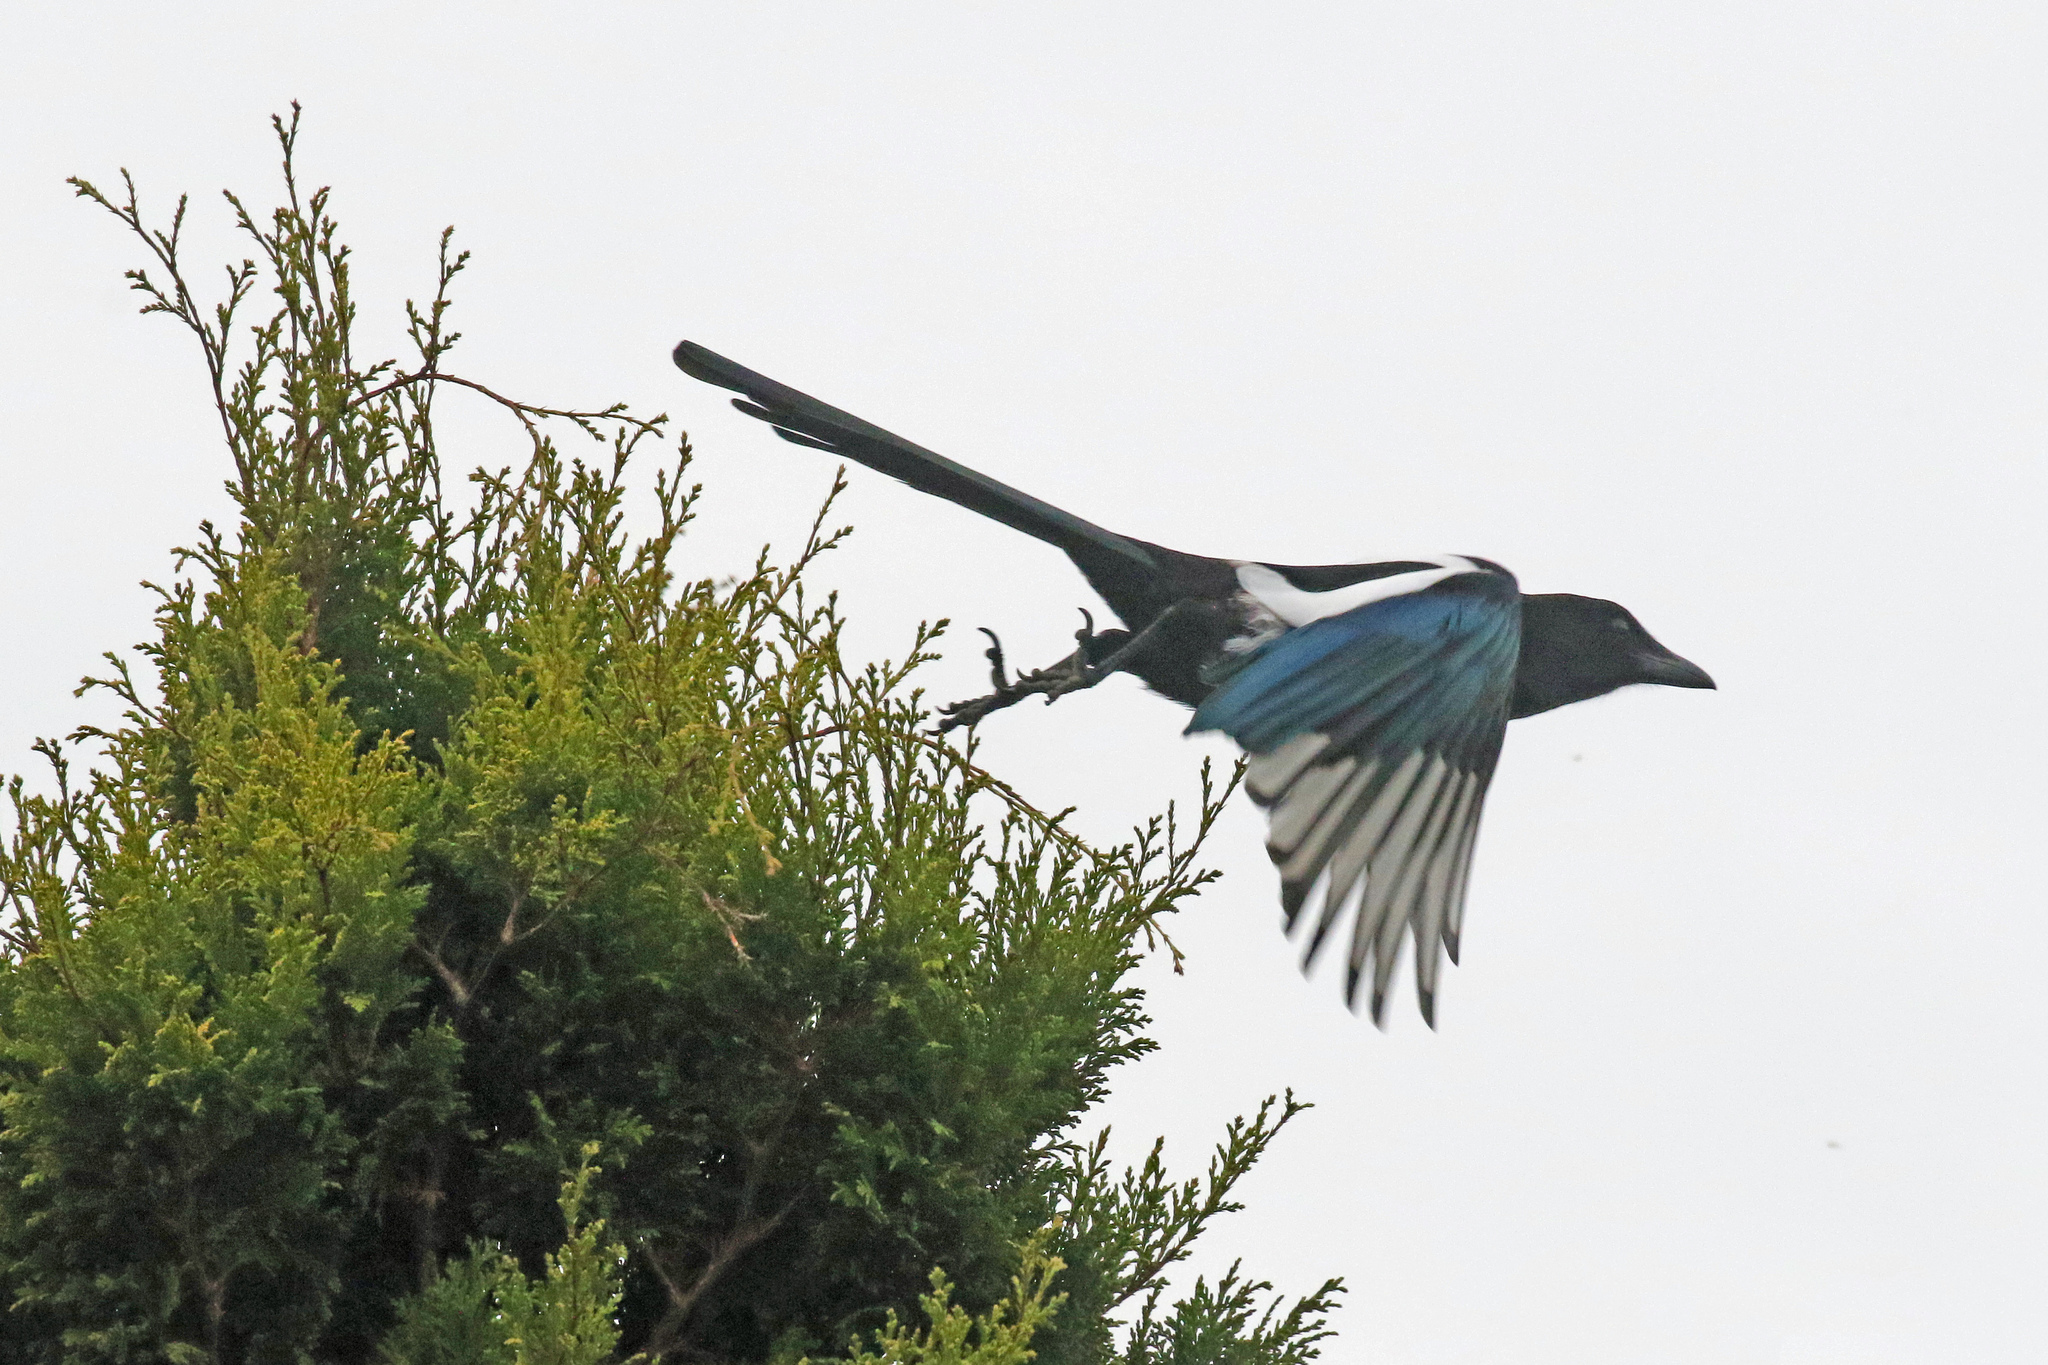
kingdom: Animalia
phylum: Chordata
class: Aves
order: Passeriformes
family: Corvidae
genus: Pica
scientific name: Pica pica
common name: Eurasian magpie
